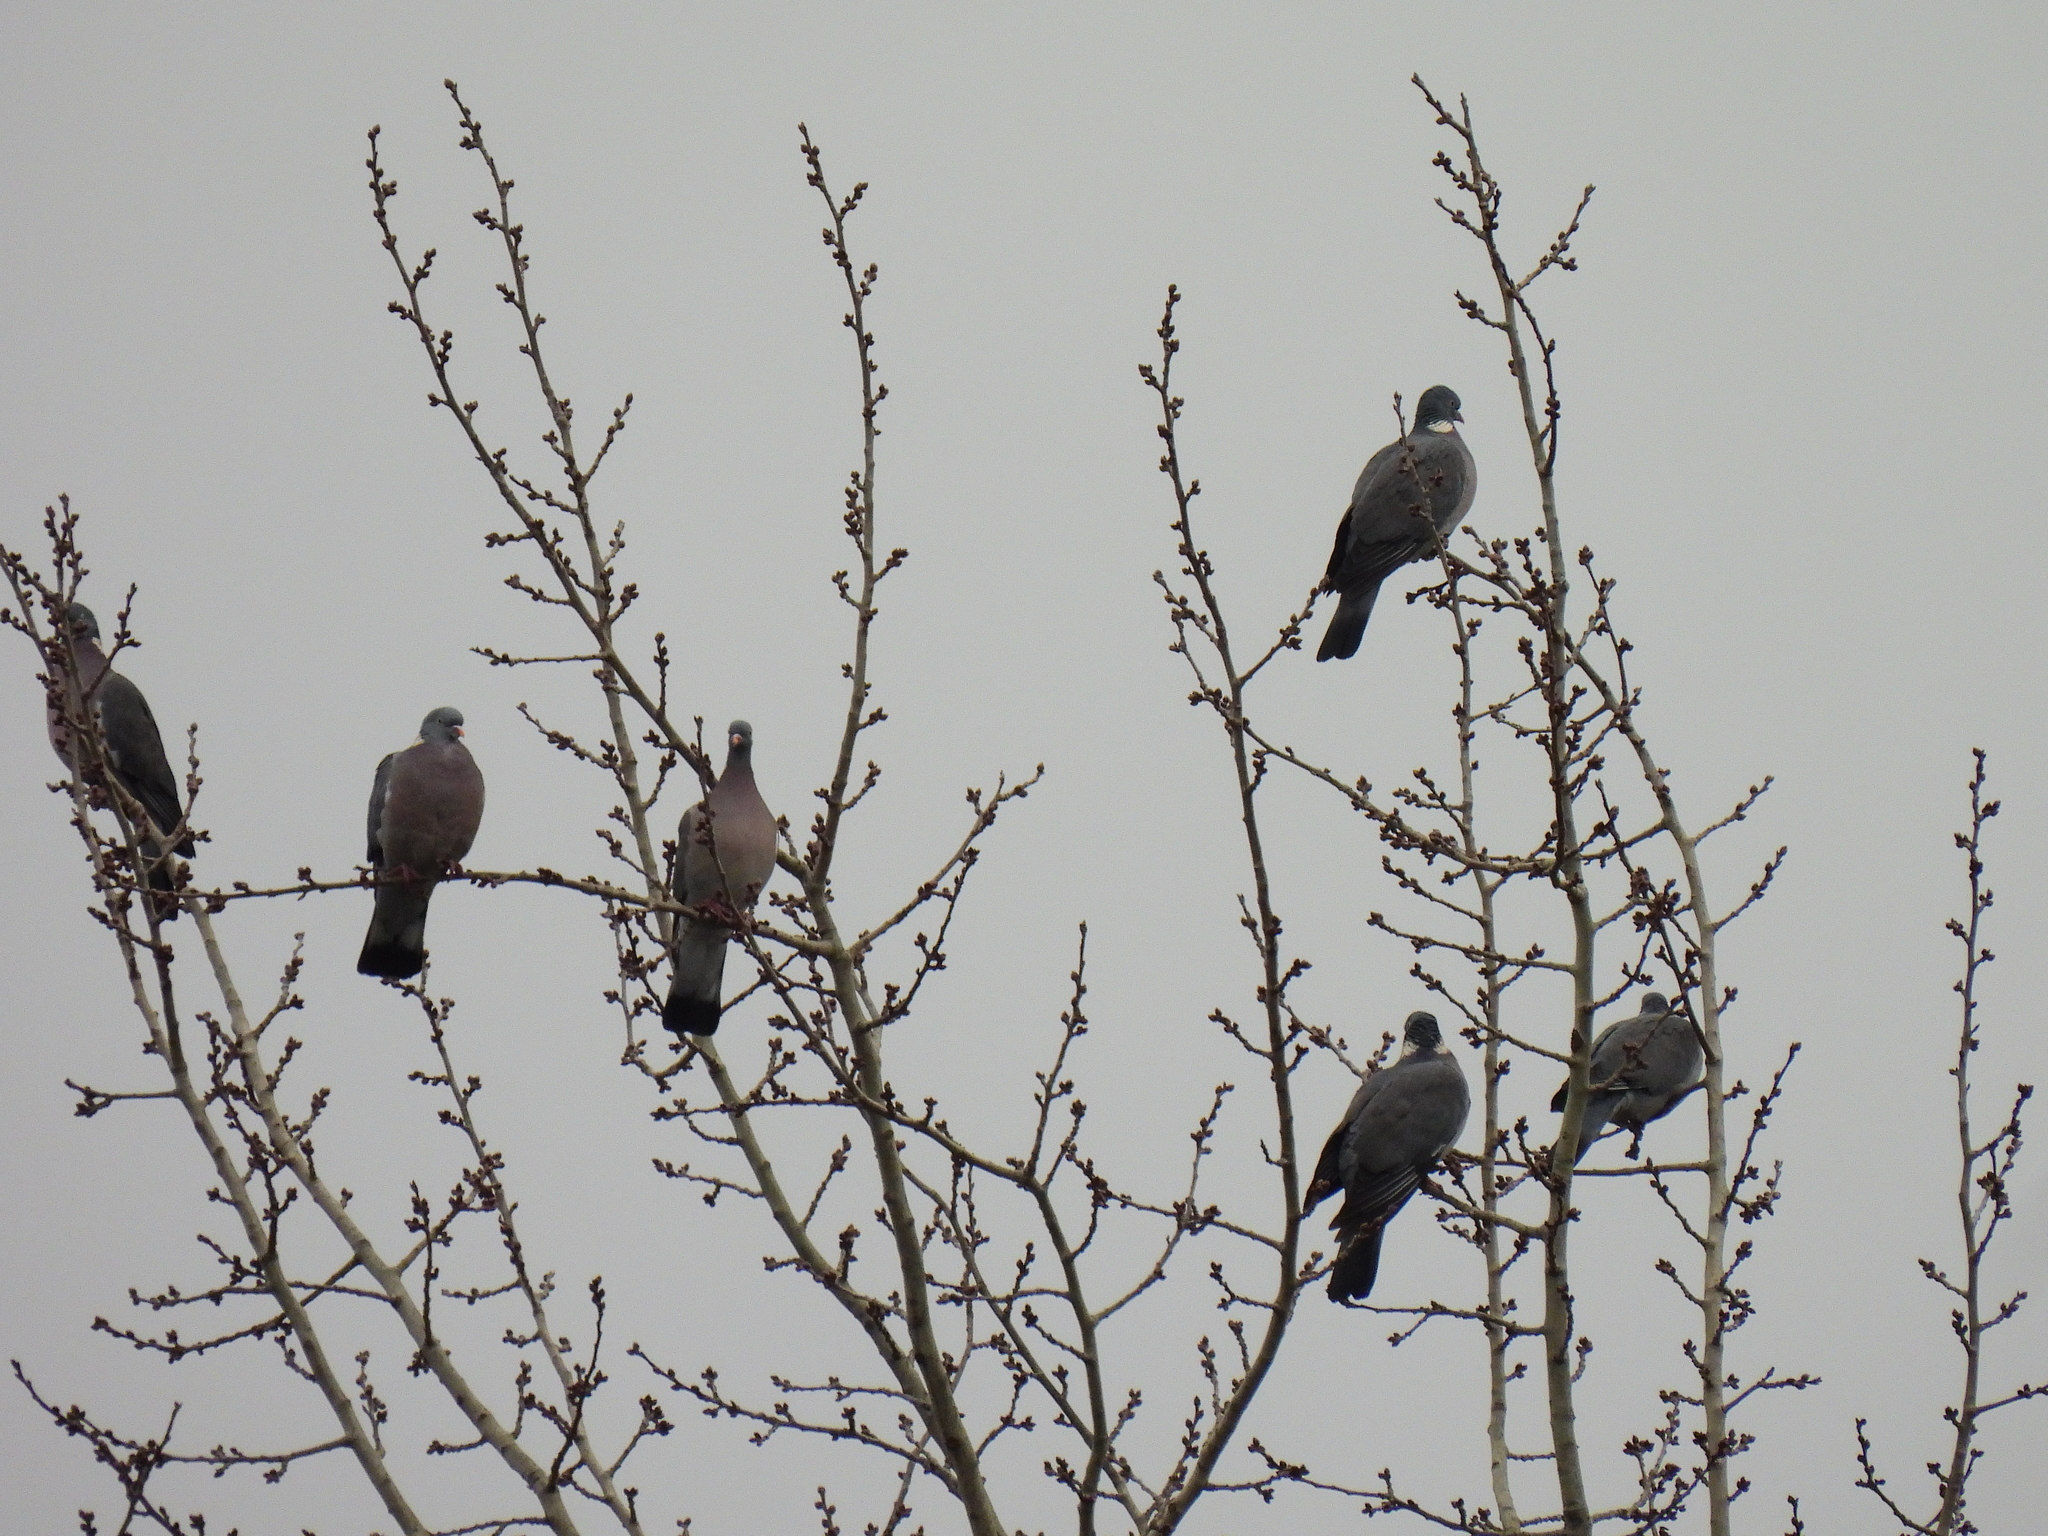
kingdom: Animalia
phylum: Chordata
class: Aves
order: Columbiformes
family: Columbidae
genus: Columba
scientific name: Columba palumbus
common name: Common wood pigeon
